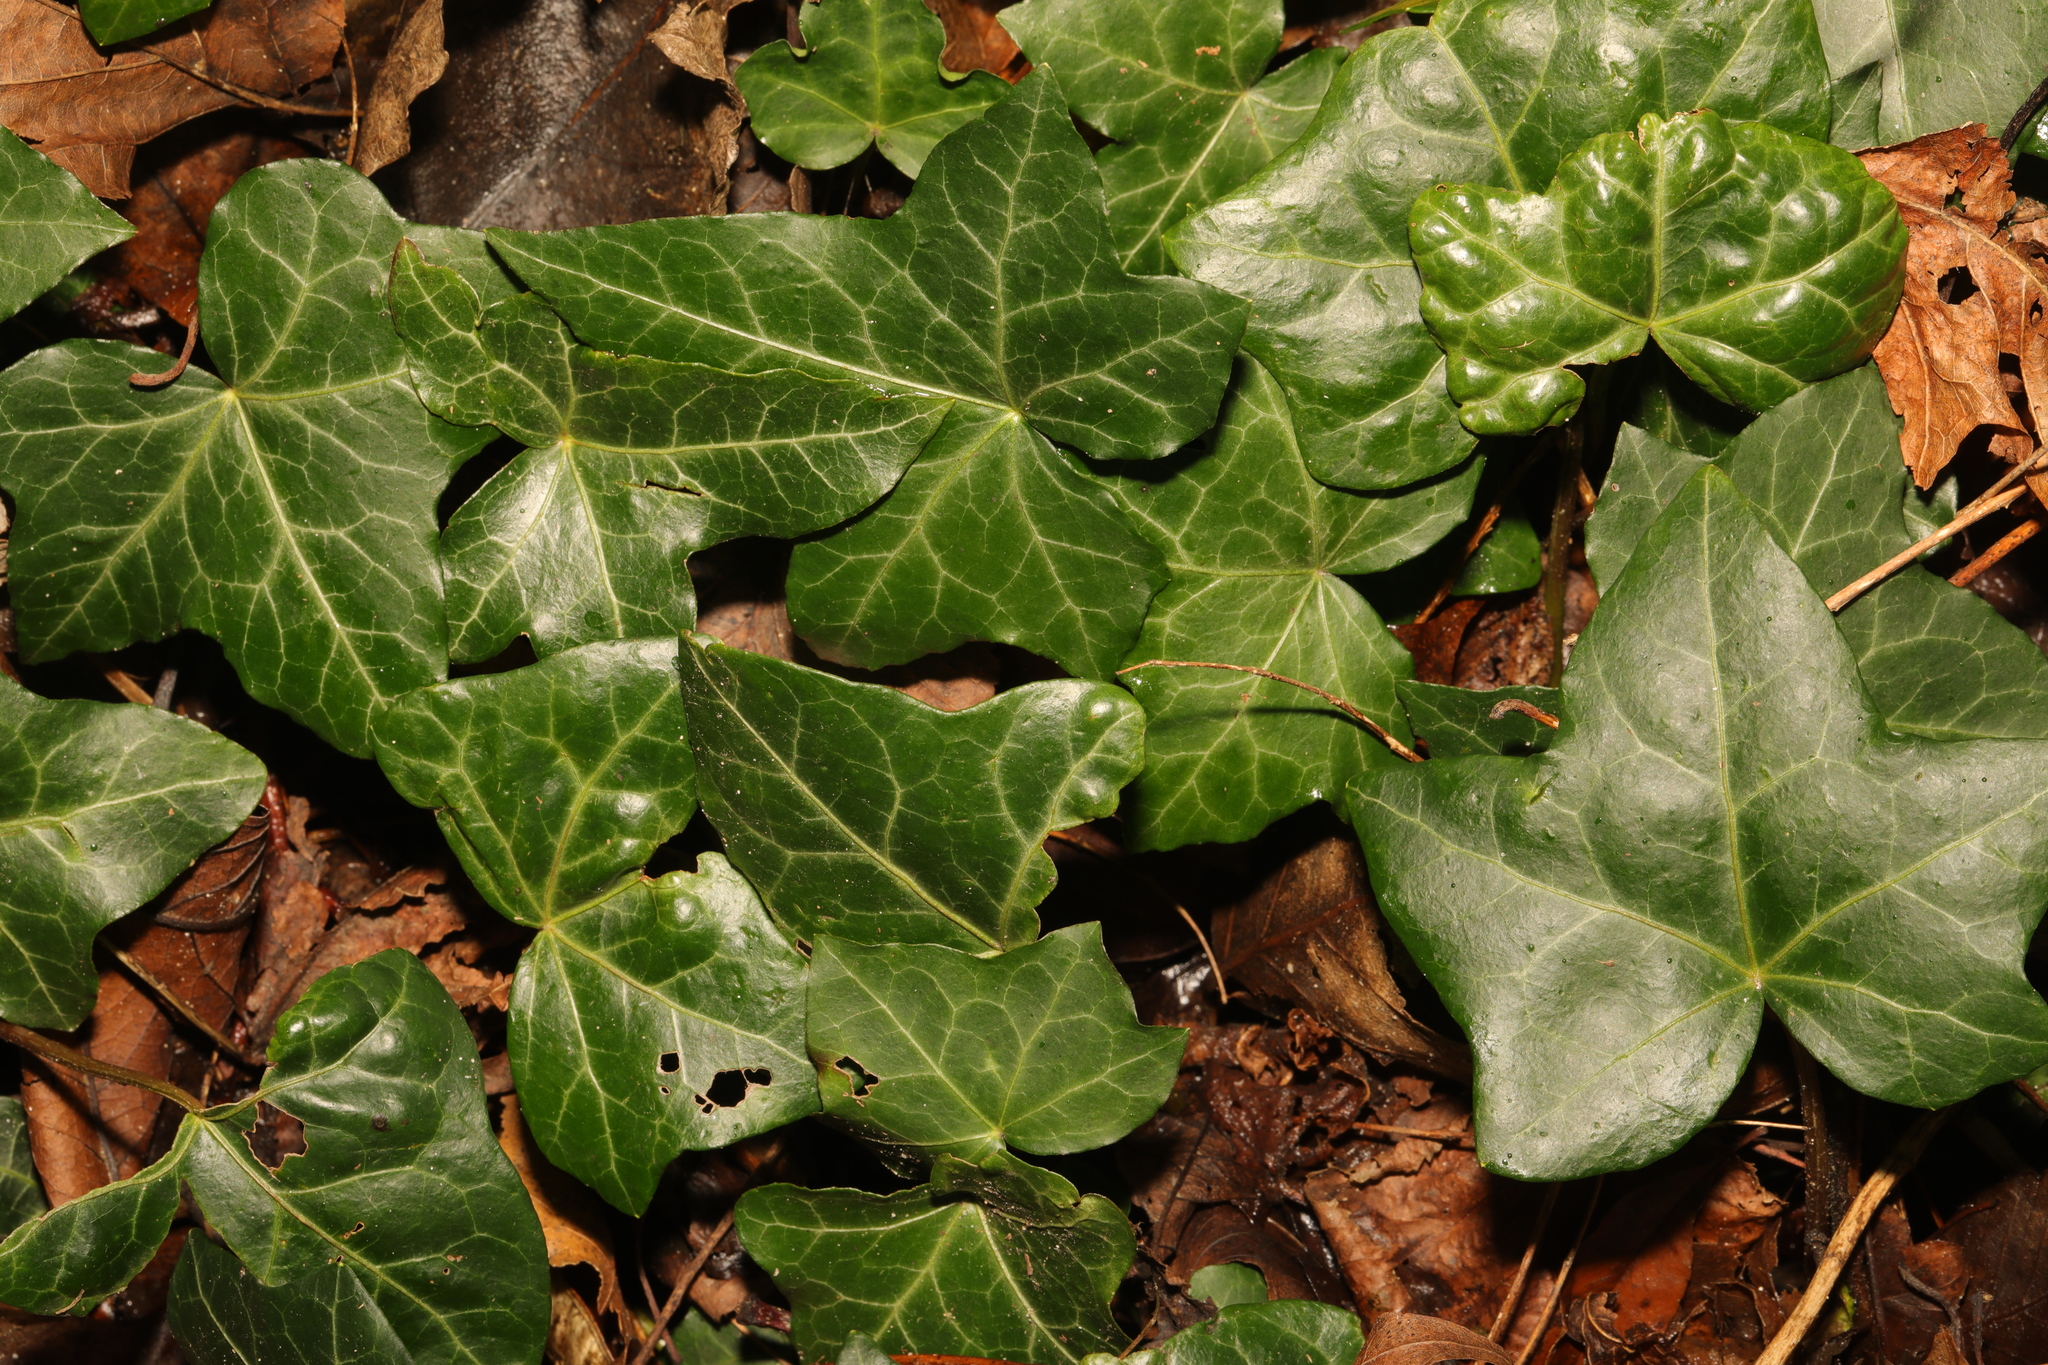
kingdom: Plantae
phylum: Tracheophyta
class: Magnoliopsida
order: Apiales
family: Araliaceae
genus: Hedera
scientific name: Hedera helix
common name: Ivy
